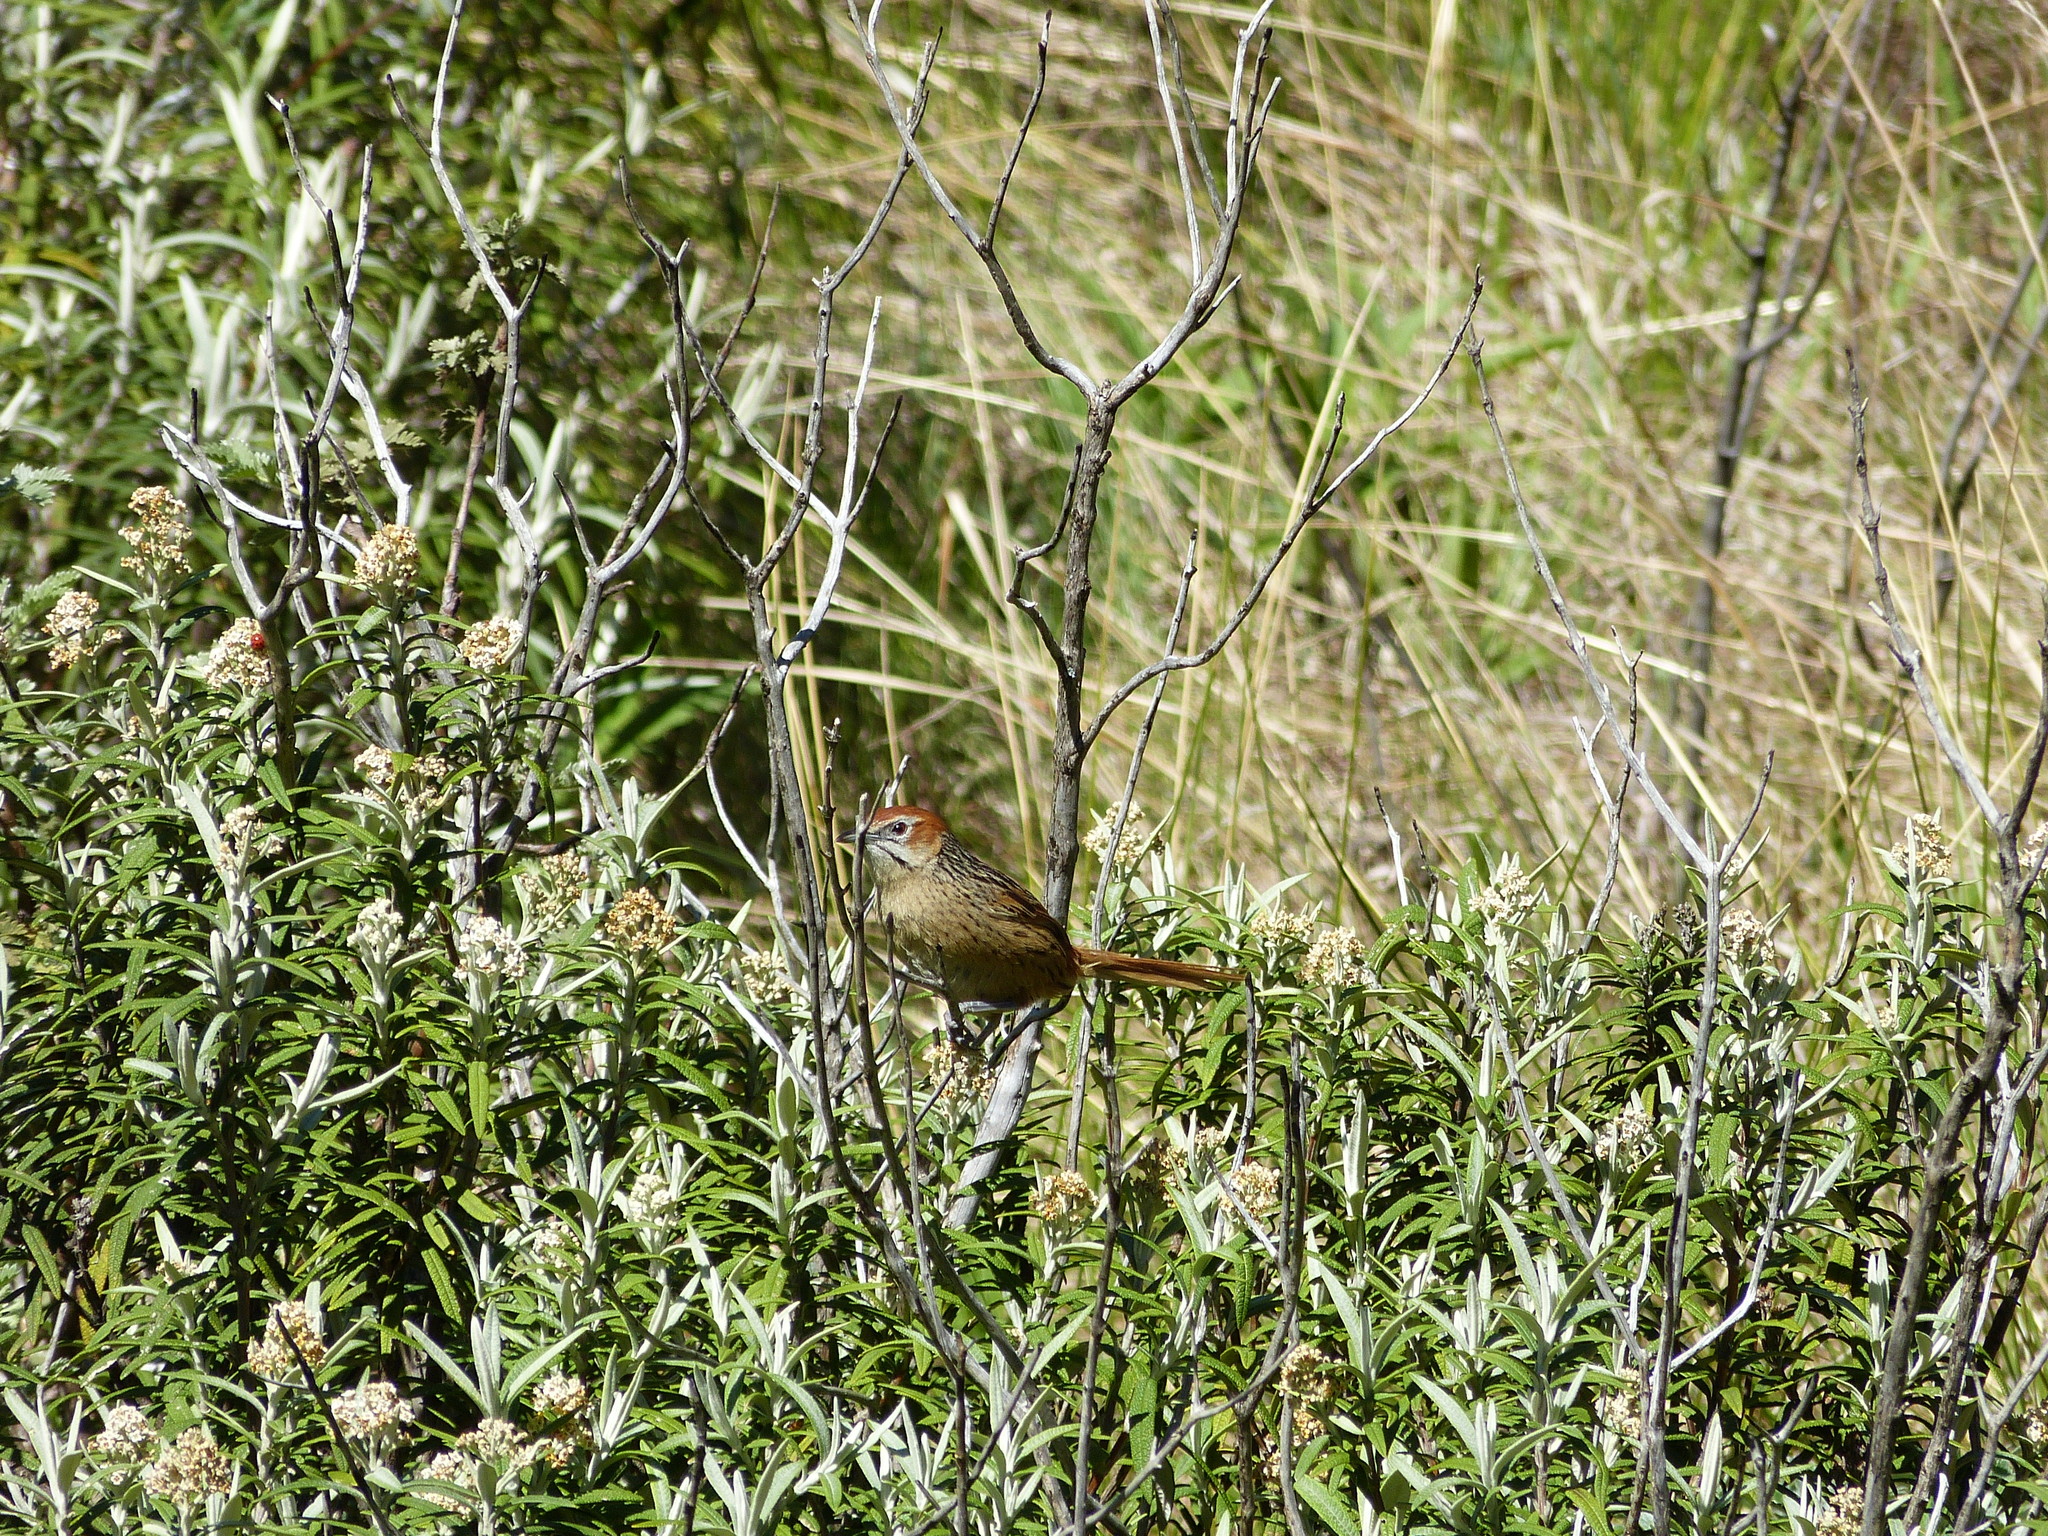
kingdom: Animalia
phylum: Chordata
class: Aves
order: Passeriformes
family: Macrosphenidae
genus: Sphenoeacus
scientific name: Sphenoeacus afer
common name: Cape grassbird
